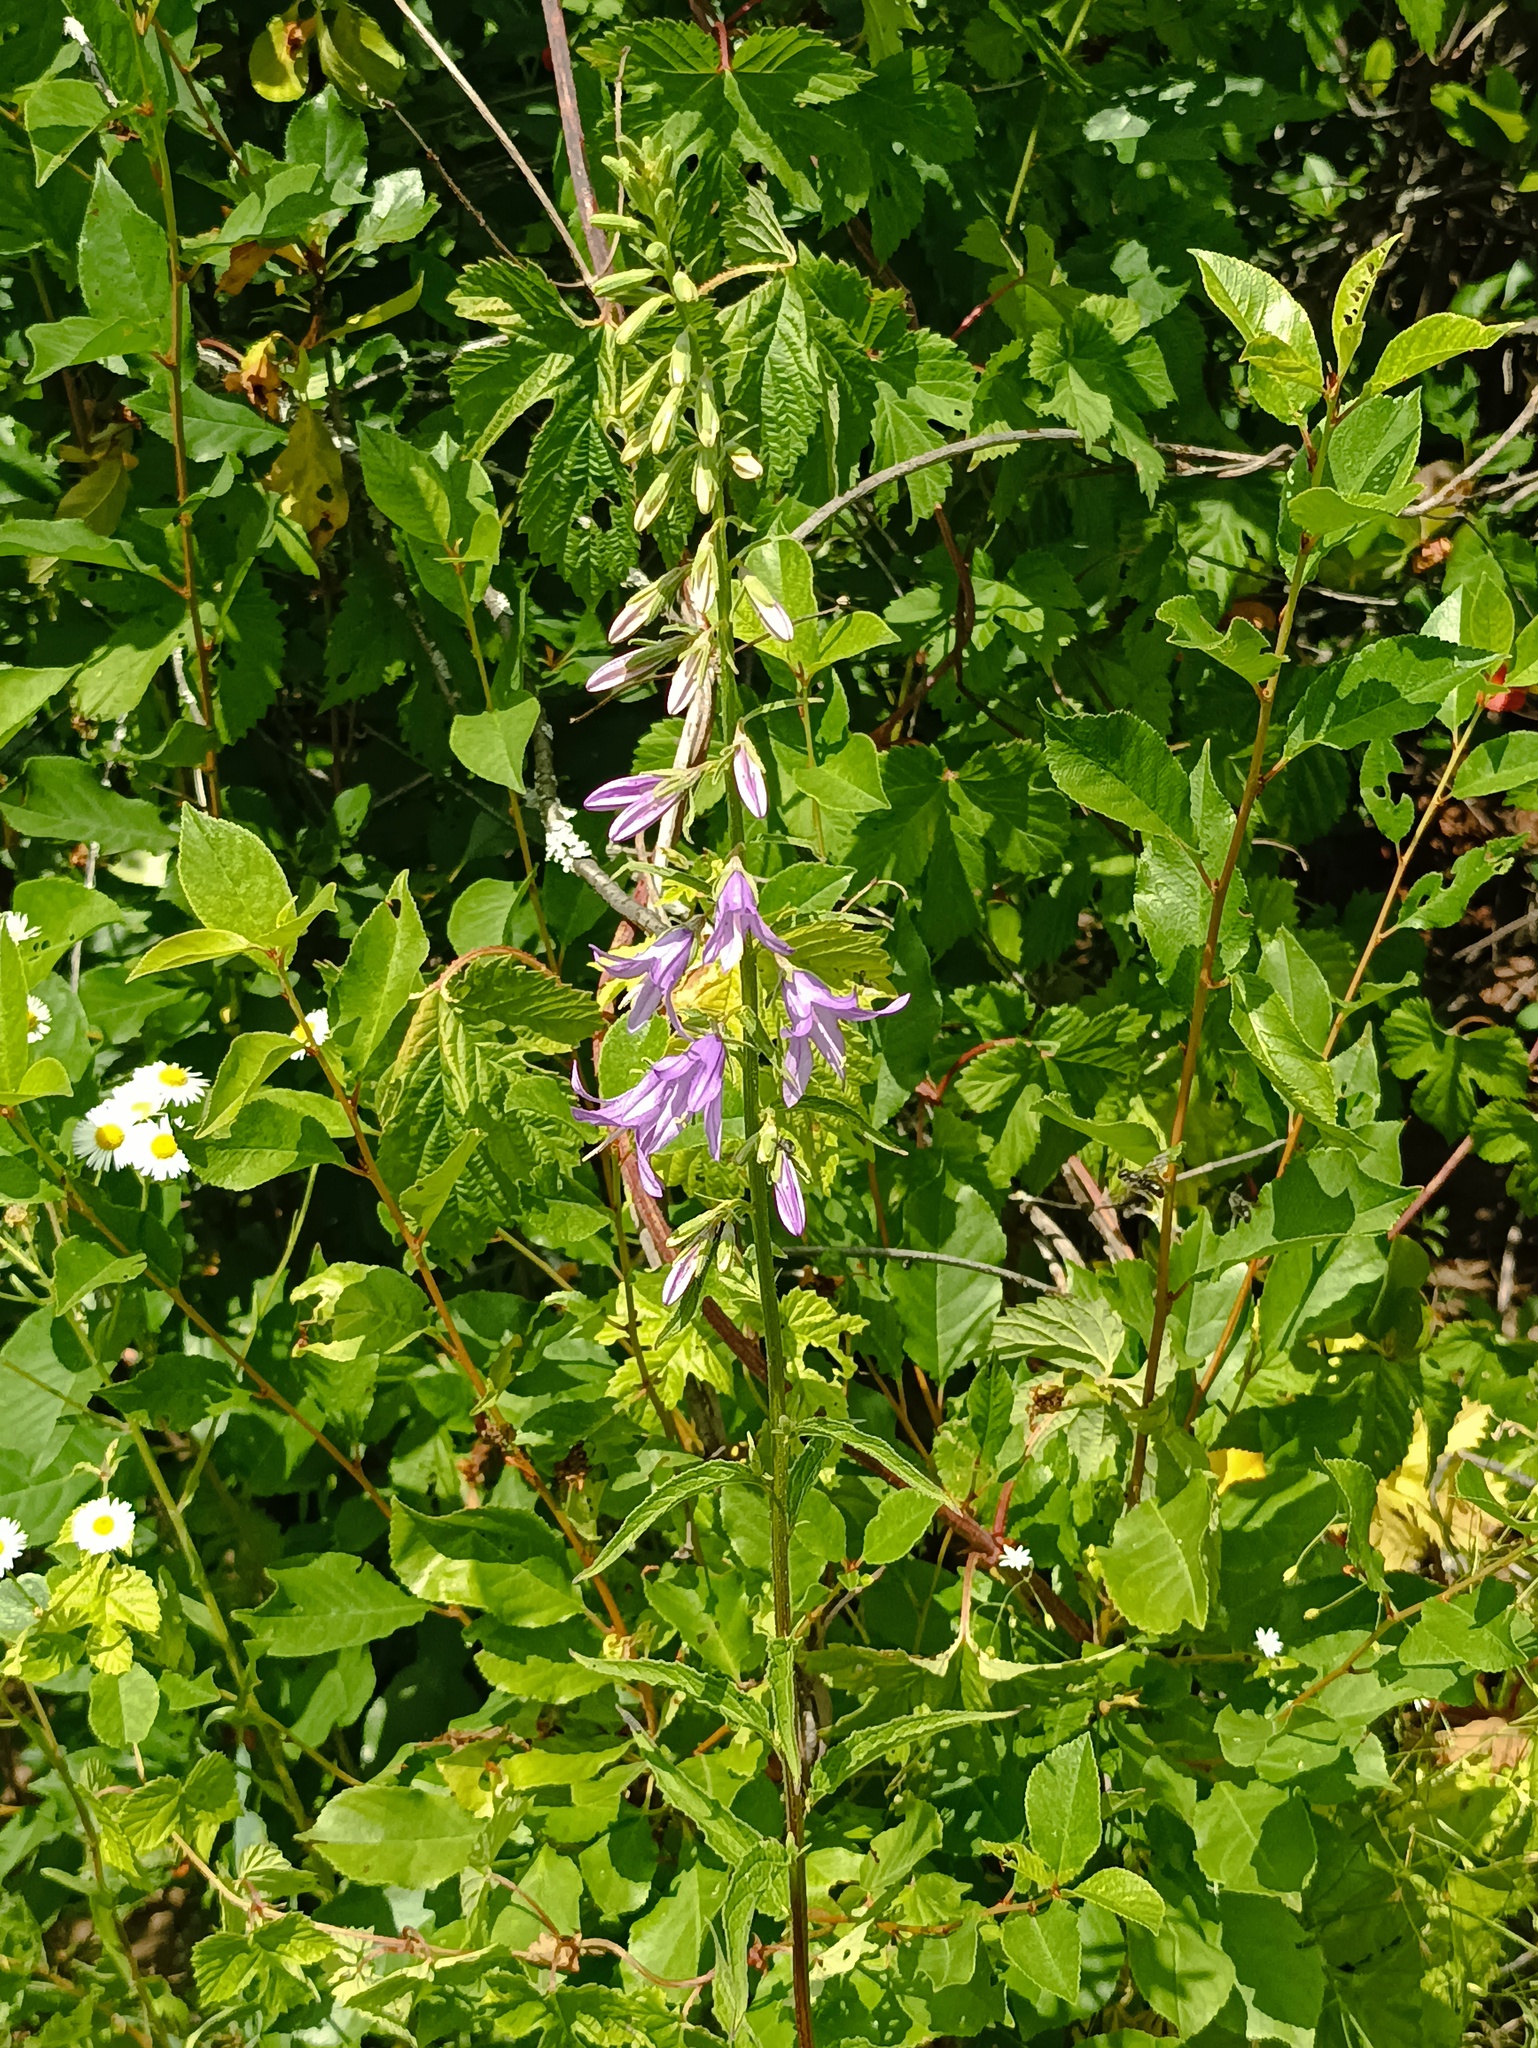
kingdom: Plantae
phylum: Tracheophyta
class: Magnoliopsida
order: Asterales
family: Campanulaceae
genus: Campanula
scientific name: Campanula rapunculoides
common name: Creeping bellflower
